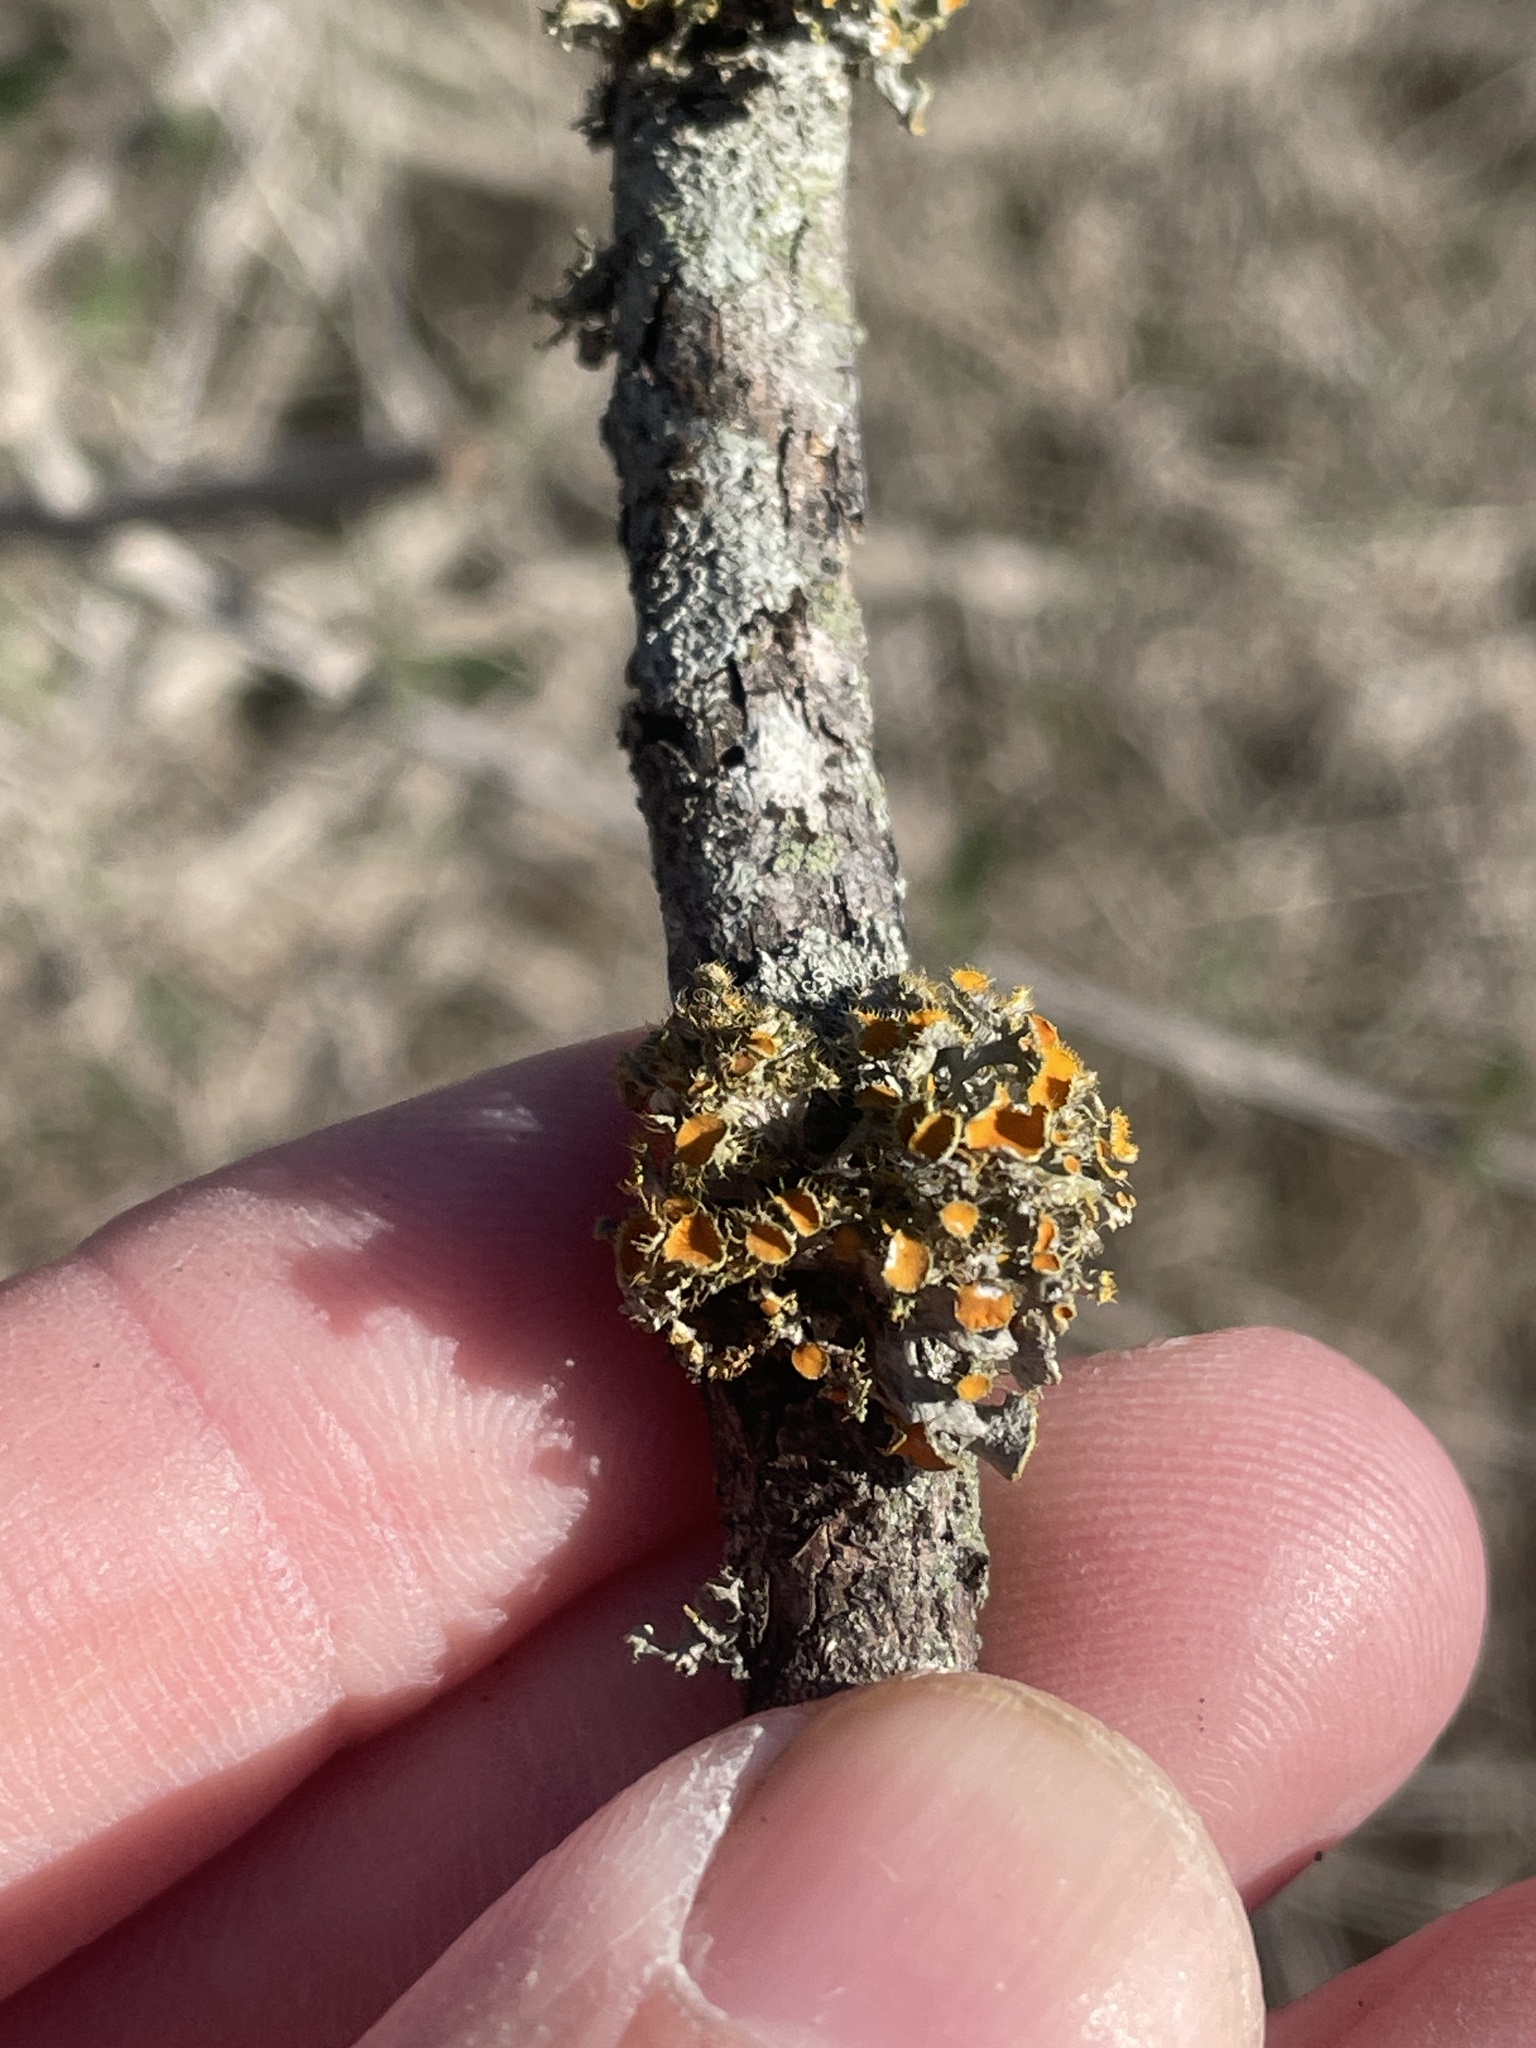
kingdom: Fungi
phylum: Ascomycota
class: Lecanoromycetes
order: Teloschistales
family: Teloschistaceae
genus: Niorma
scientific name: Niorma chrysophthalma
